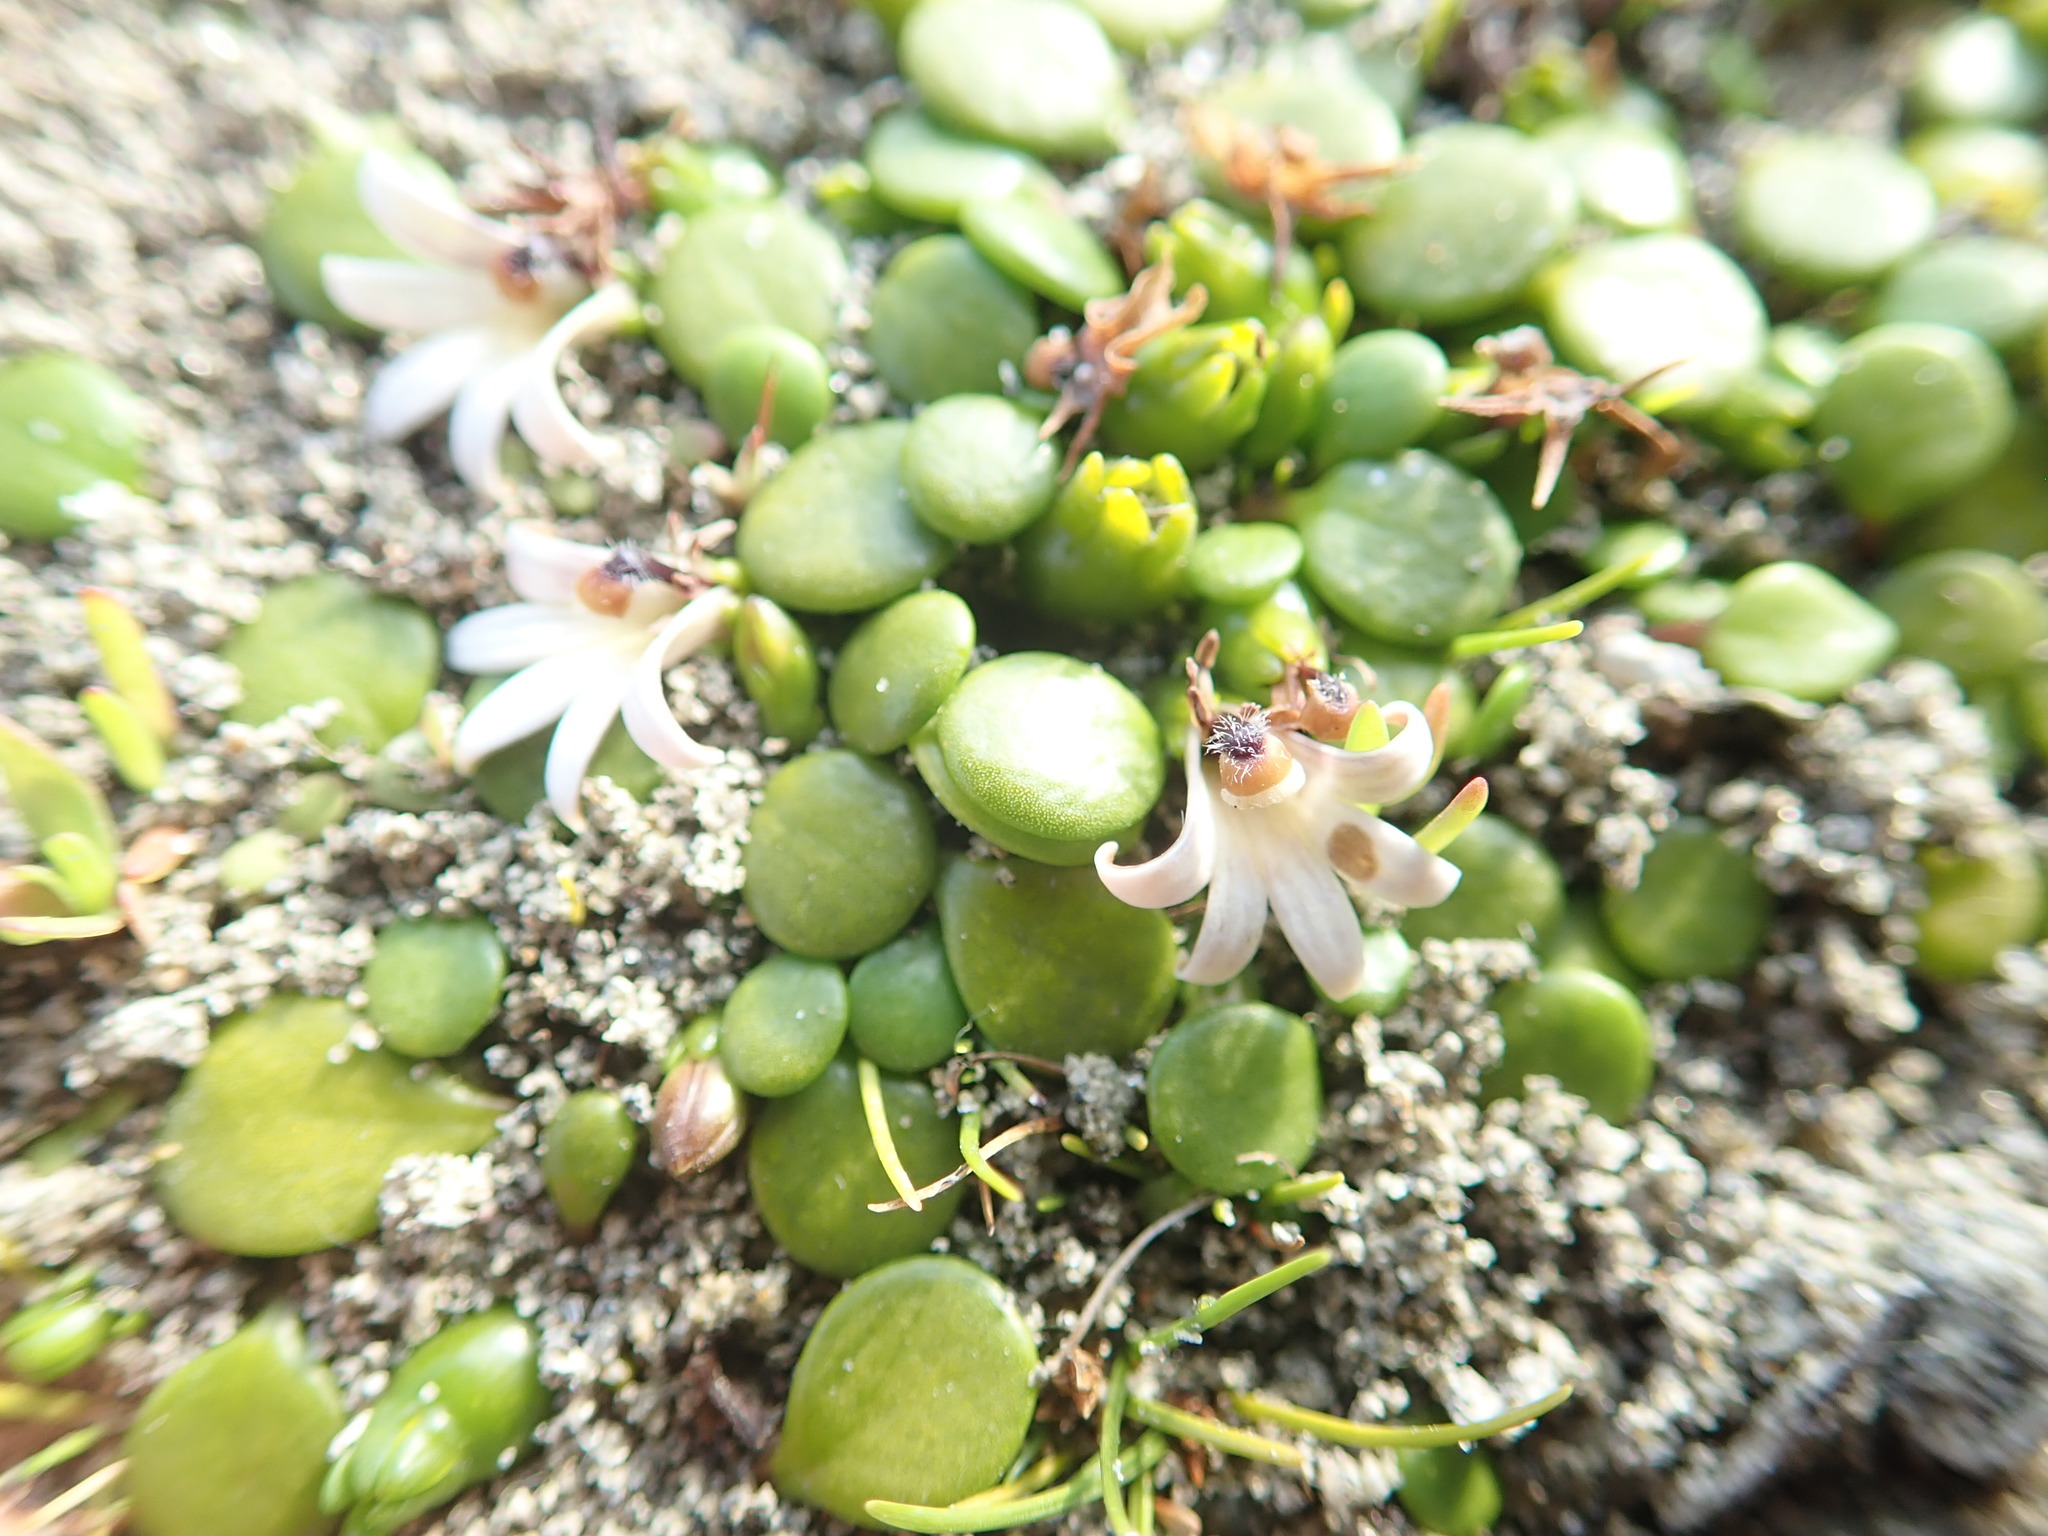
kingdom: Plantae
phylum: Tracheophyta
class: Magnoliopsida
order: Asterales
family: Goodeniaceae
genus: Goodenia
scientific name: Goodenia heenanii
